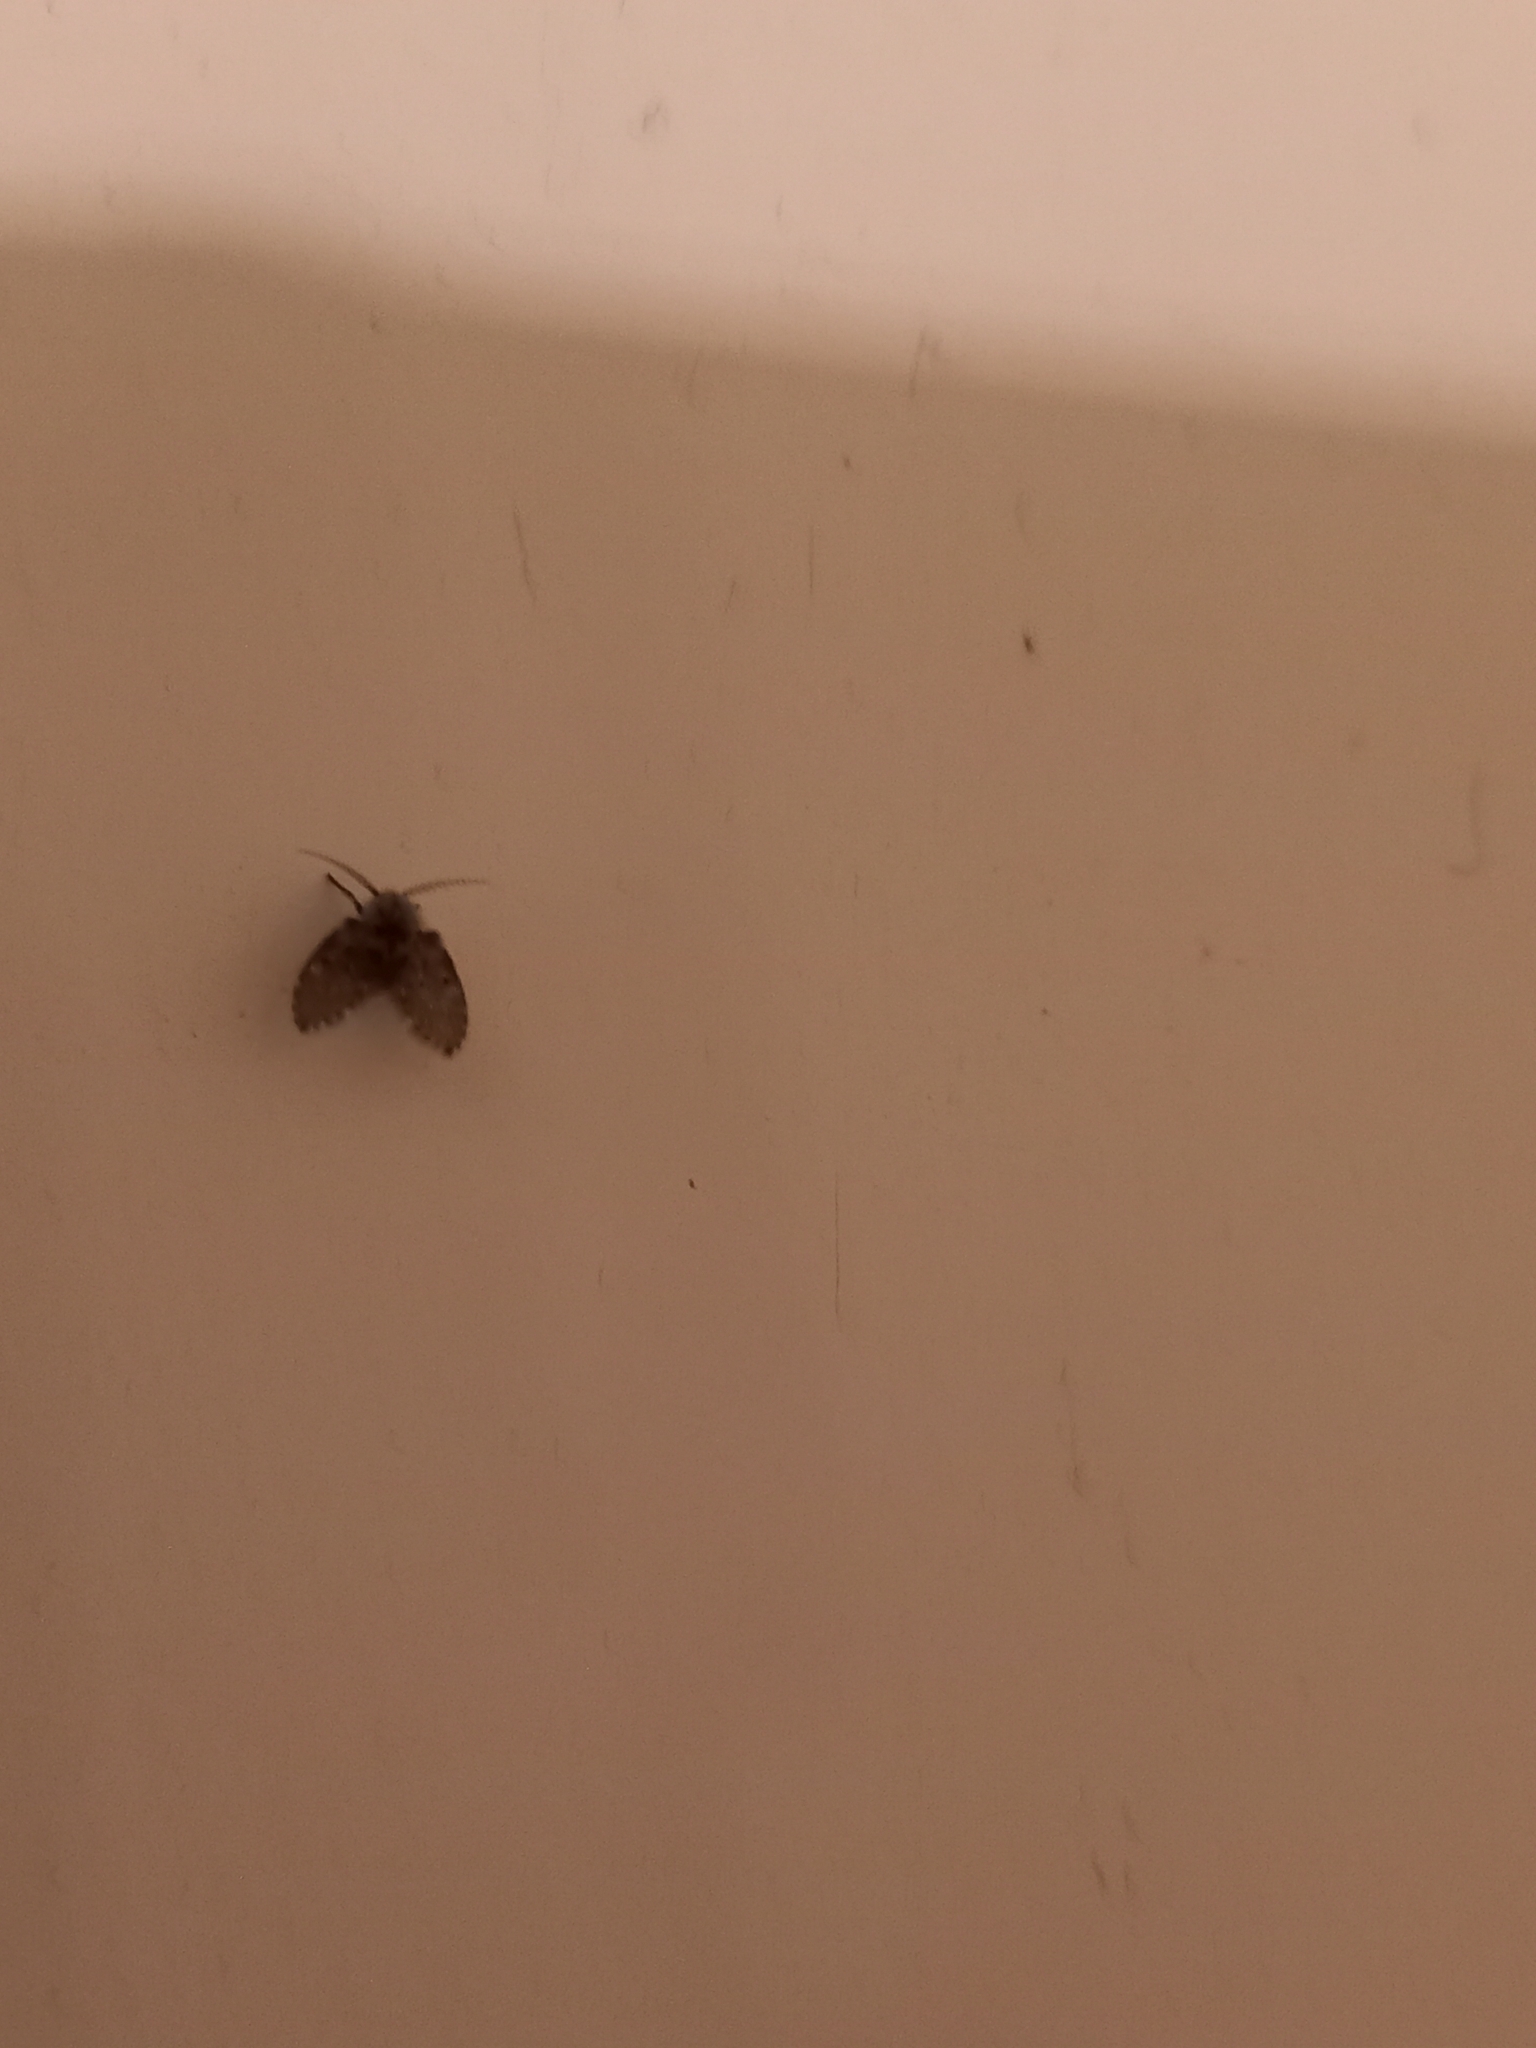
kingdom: Animalia
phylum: Arthropoda
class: Insecta
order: Diptera
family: Psychodidae
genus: Clogmia
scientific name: Clogmia albipunctatus
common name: White-spotted moth fly
